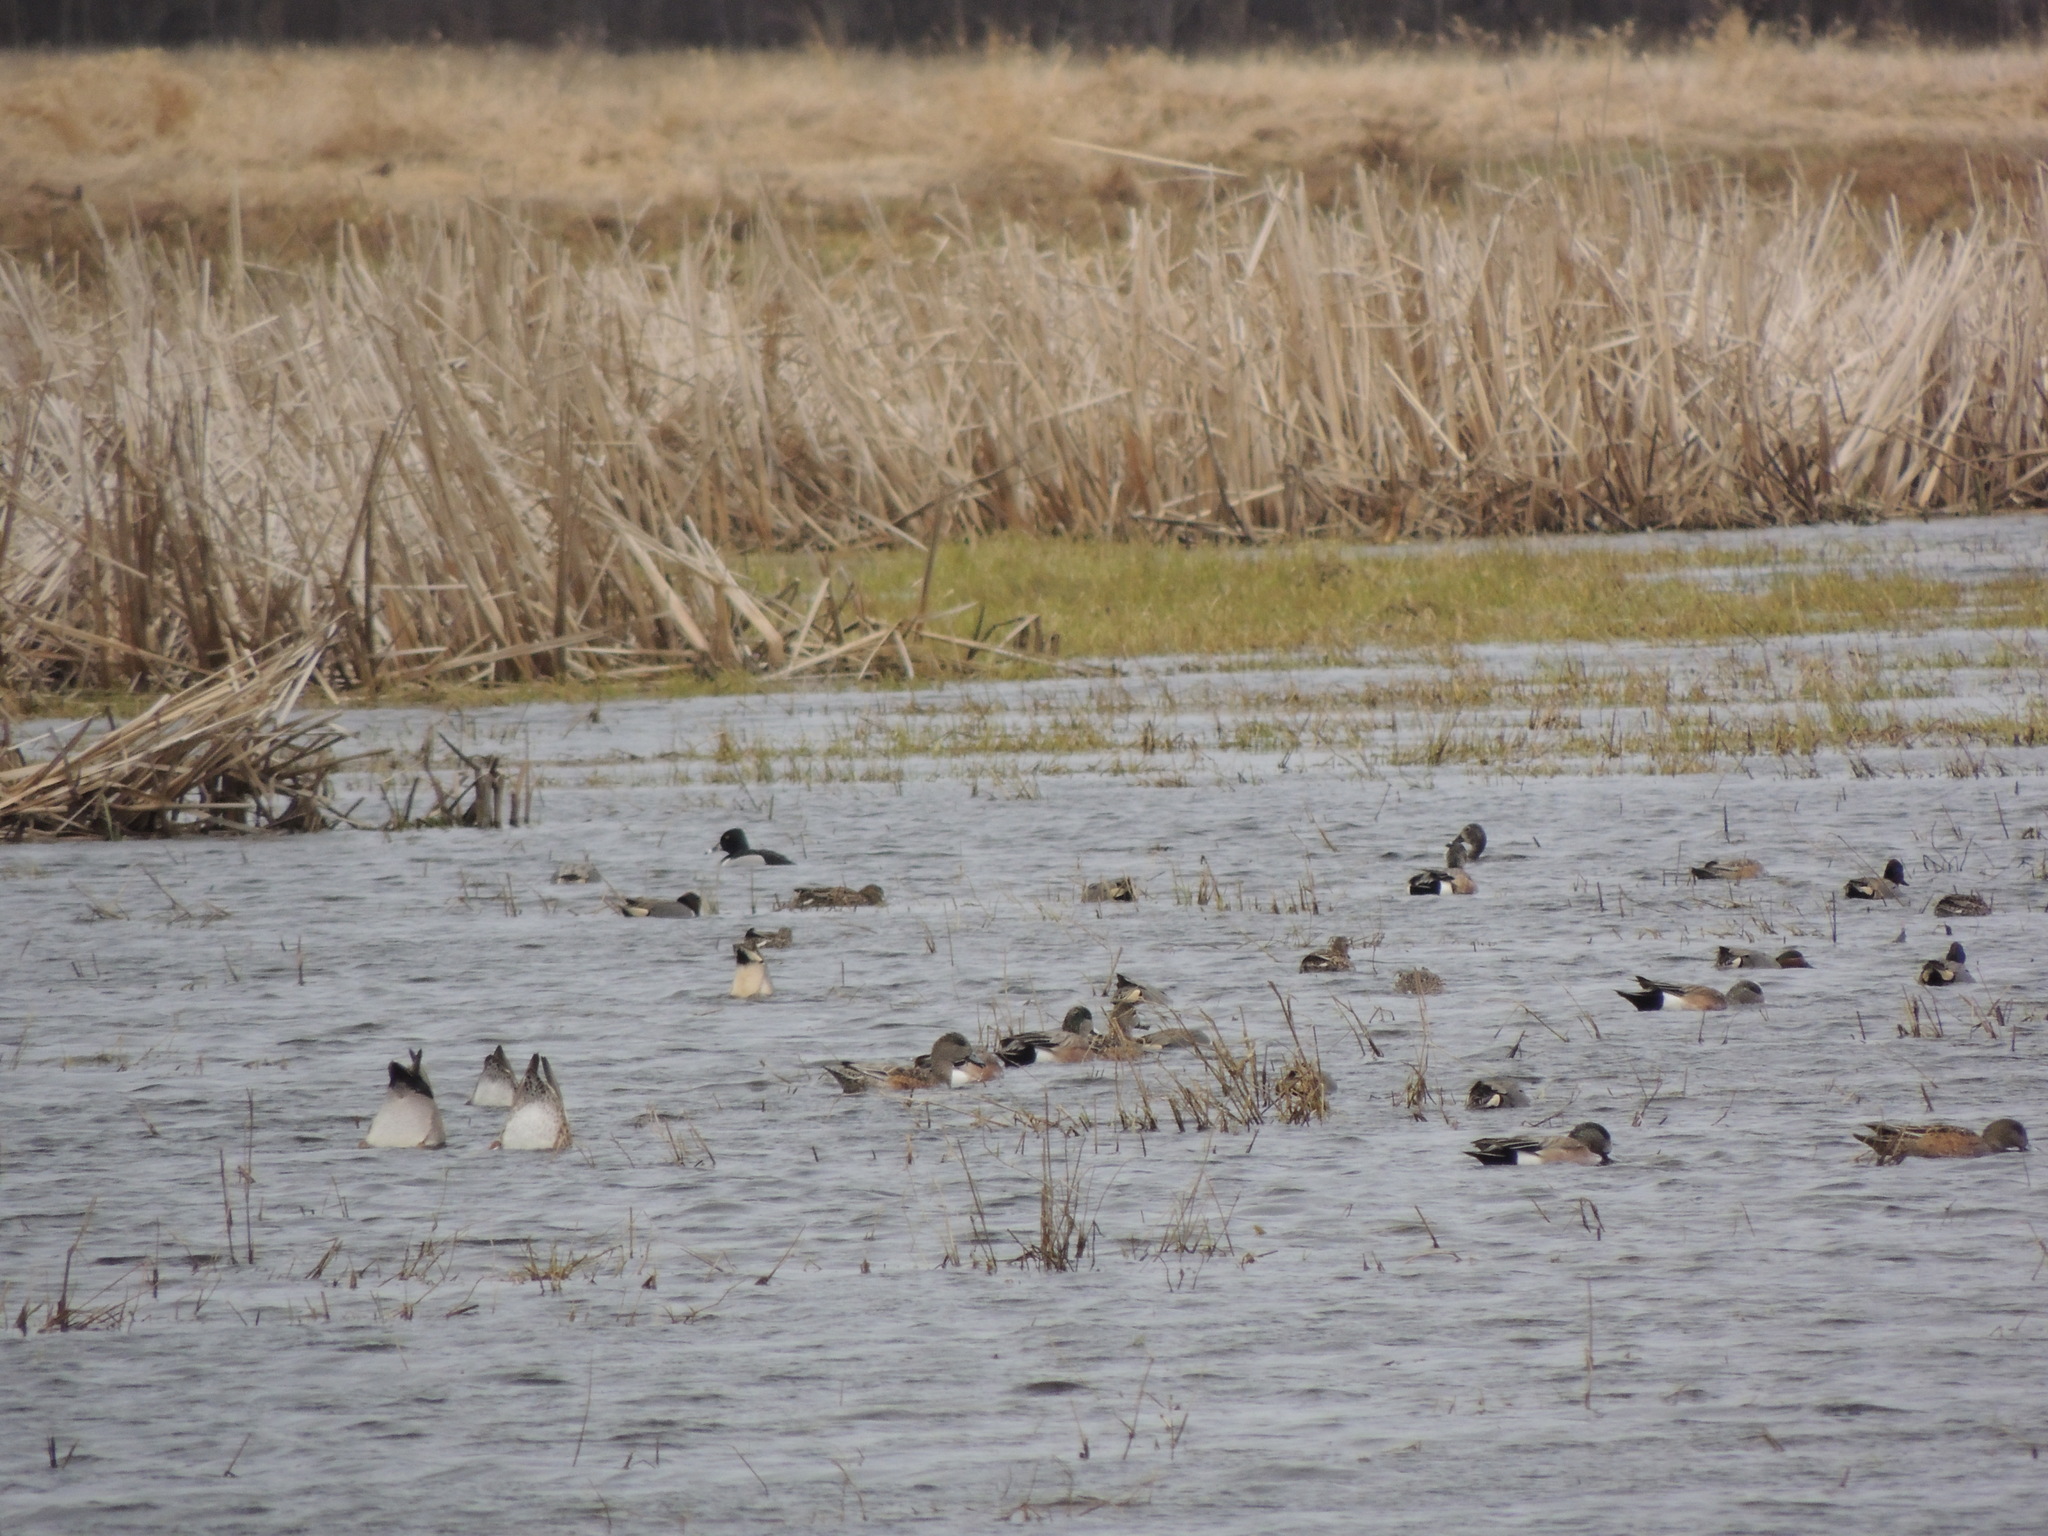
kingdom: Animalia
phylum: Chordata
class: Aves
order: Anseriformes
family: Anatidae
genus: Aythya
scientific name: Aythya collaris
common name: Ring-necked duck
